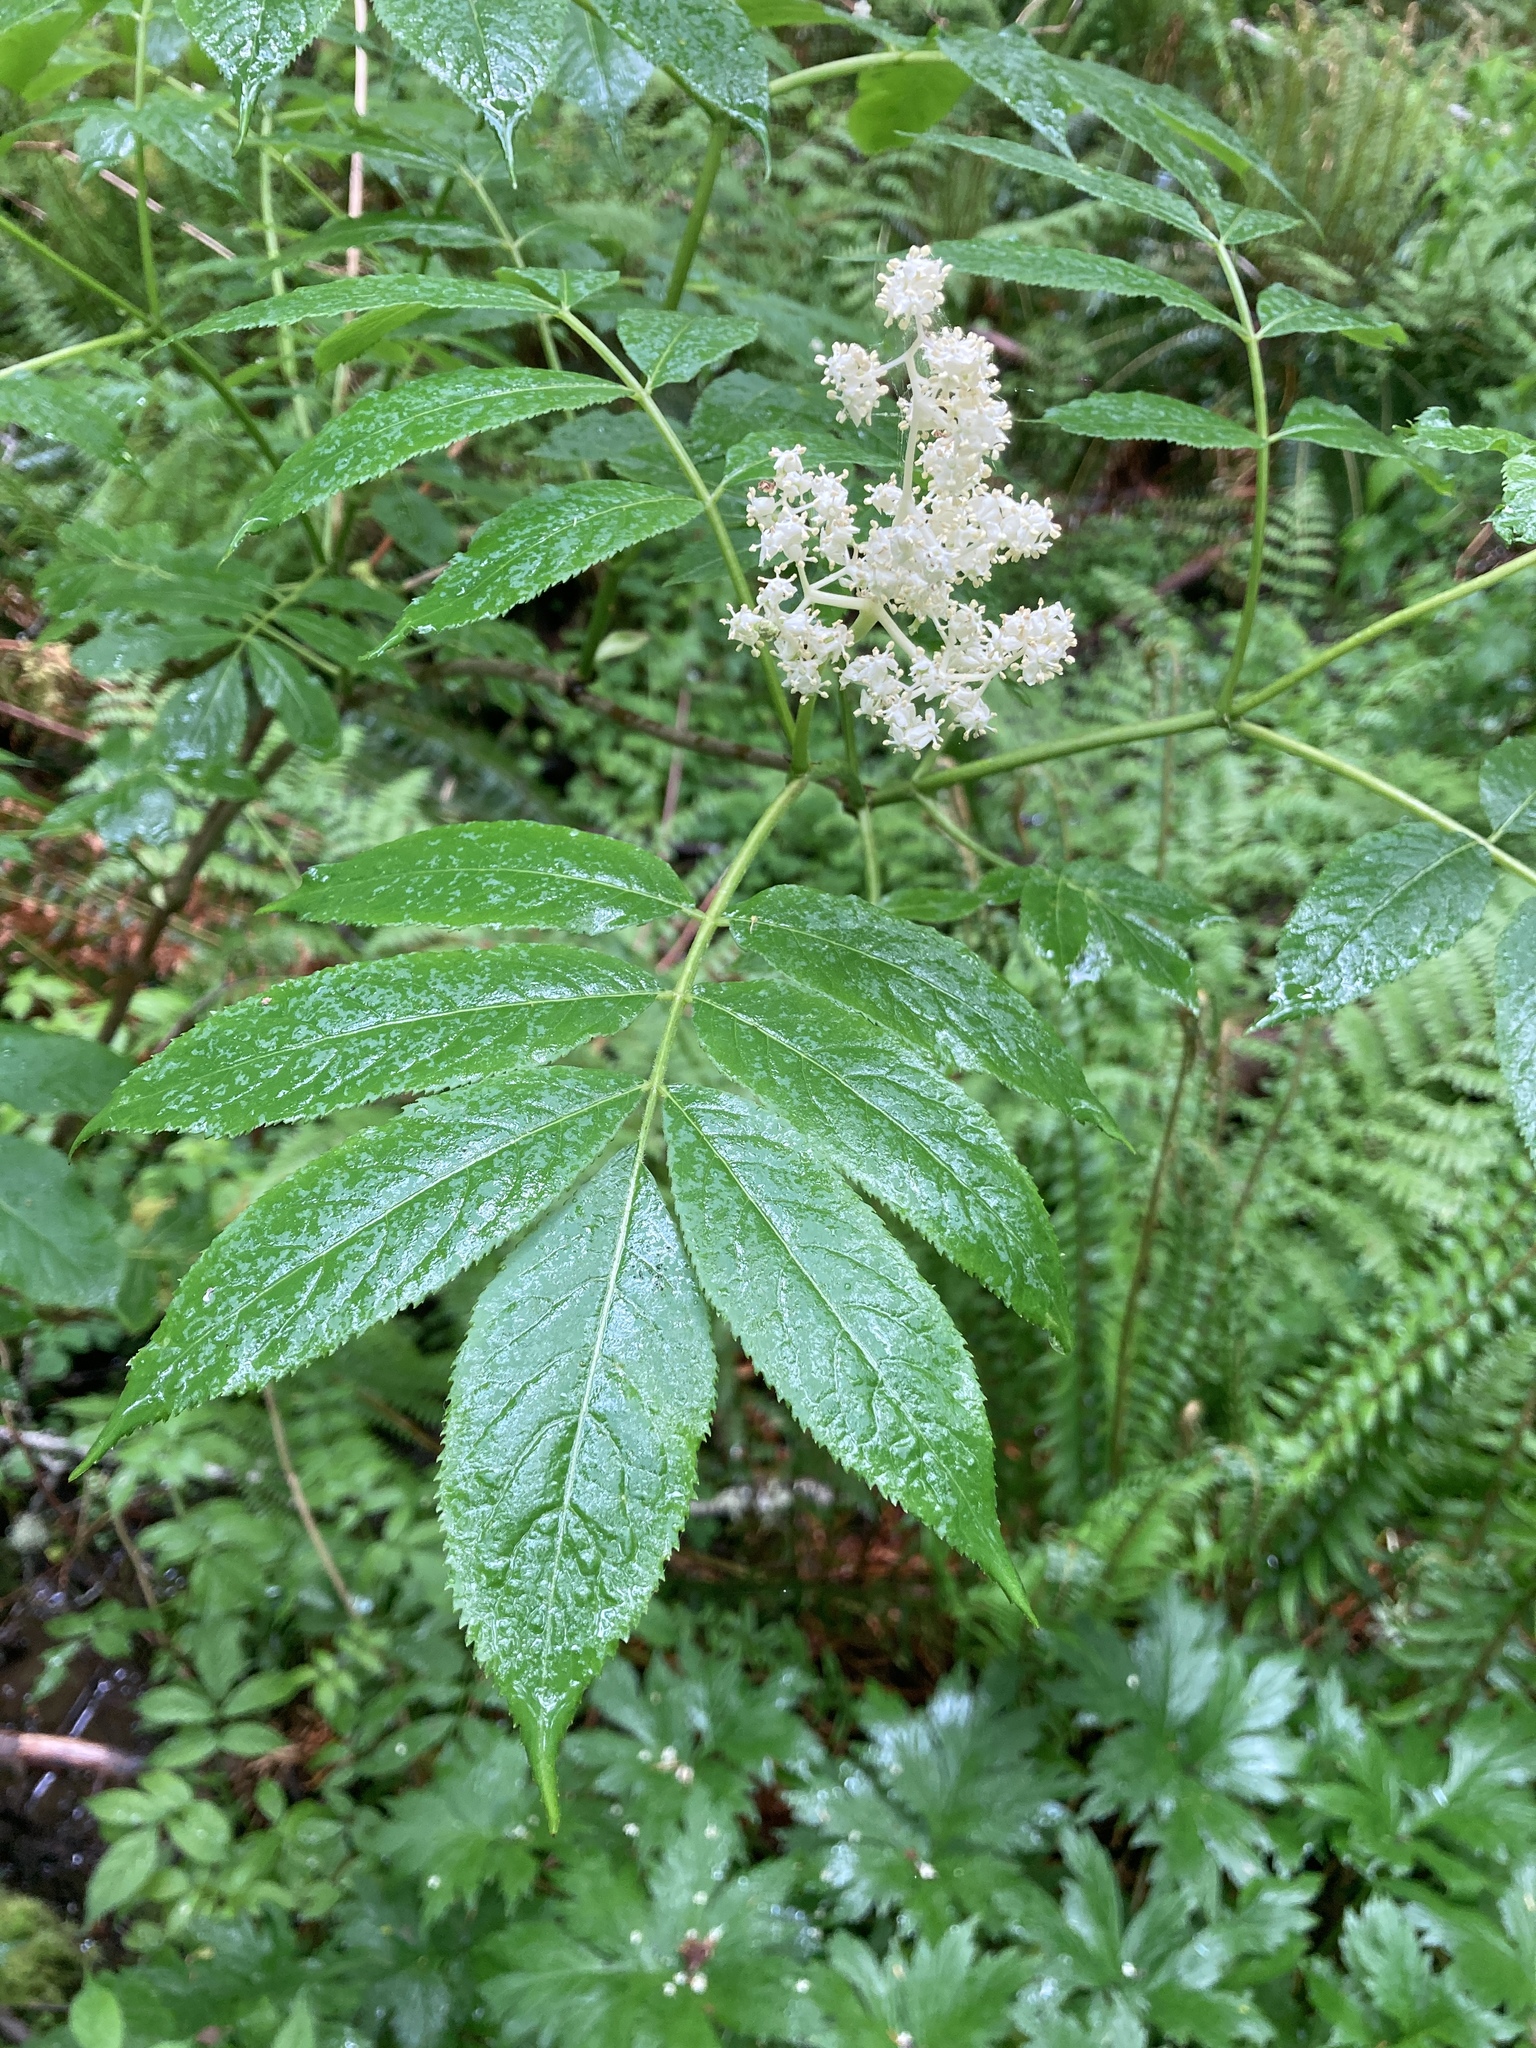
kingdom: Plantae
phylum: Tracheophyta
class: Magnoliopsida
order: Dipsacales
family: Viburnaceae
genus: Sambucus
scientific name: Sambucus racemosa
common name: Red-berried elder
